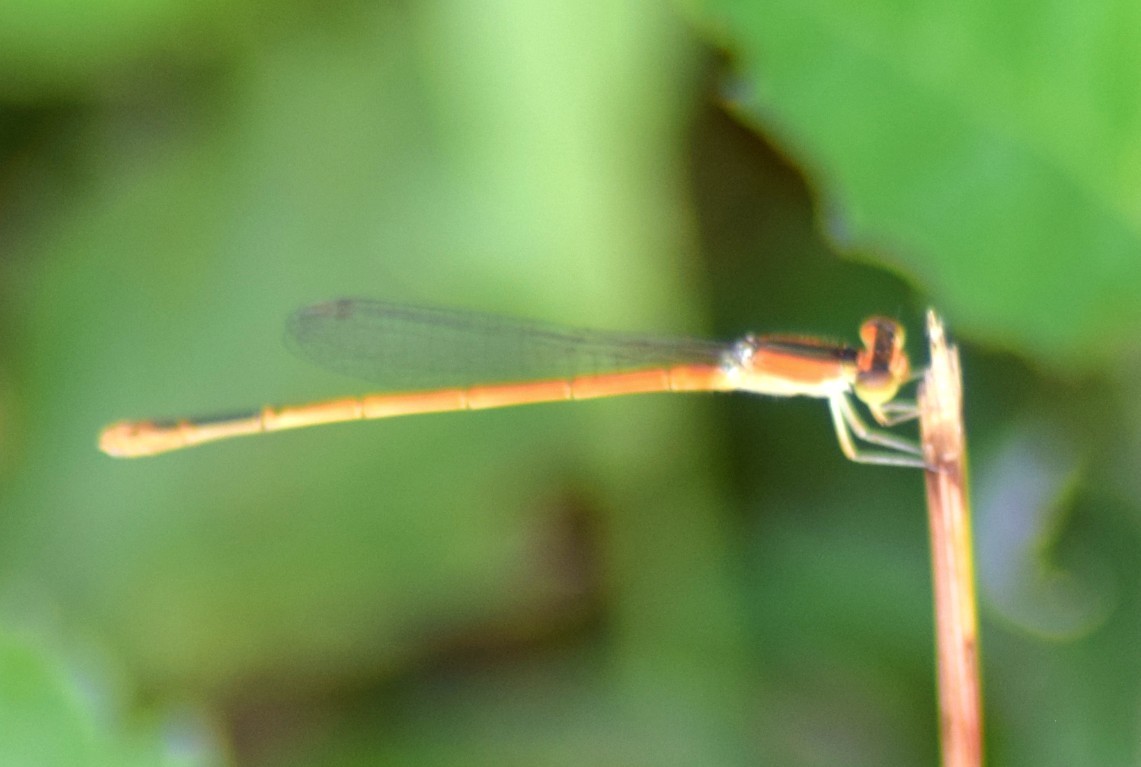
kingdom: Animalia
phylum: Arthropoda
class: Insecta
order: Odonata
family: Coenagrionidae
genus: Ischnura
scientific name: Ischnura hastata
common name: Citrine forktail
